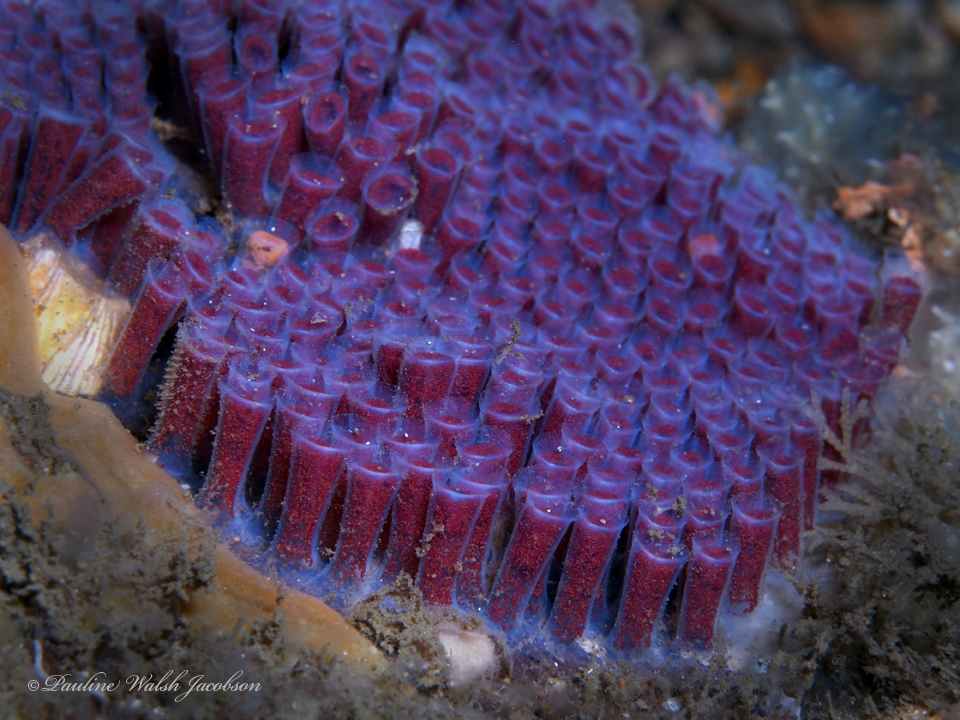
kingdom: Animalia
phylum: Mollusca
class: Gastropoda
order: Littorinimorpha
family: Cassidae
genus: Cypraecassis
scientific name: Cypraecassis testiculus
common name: Reticulate cowrie-helmet
